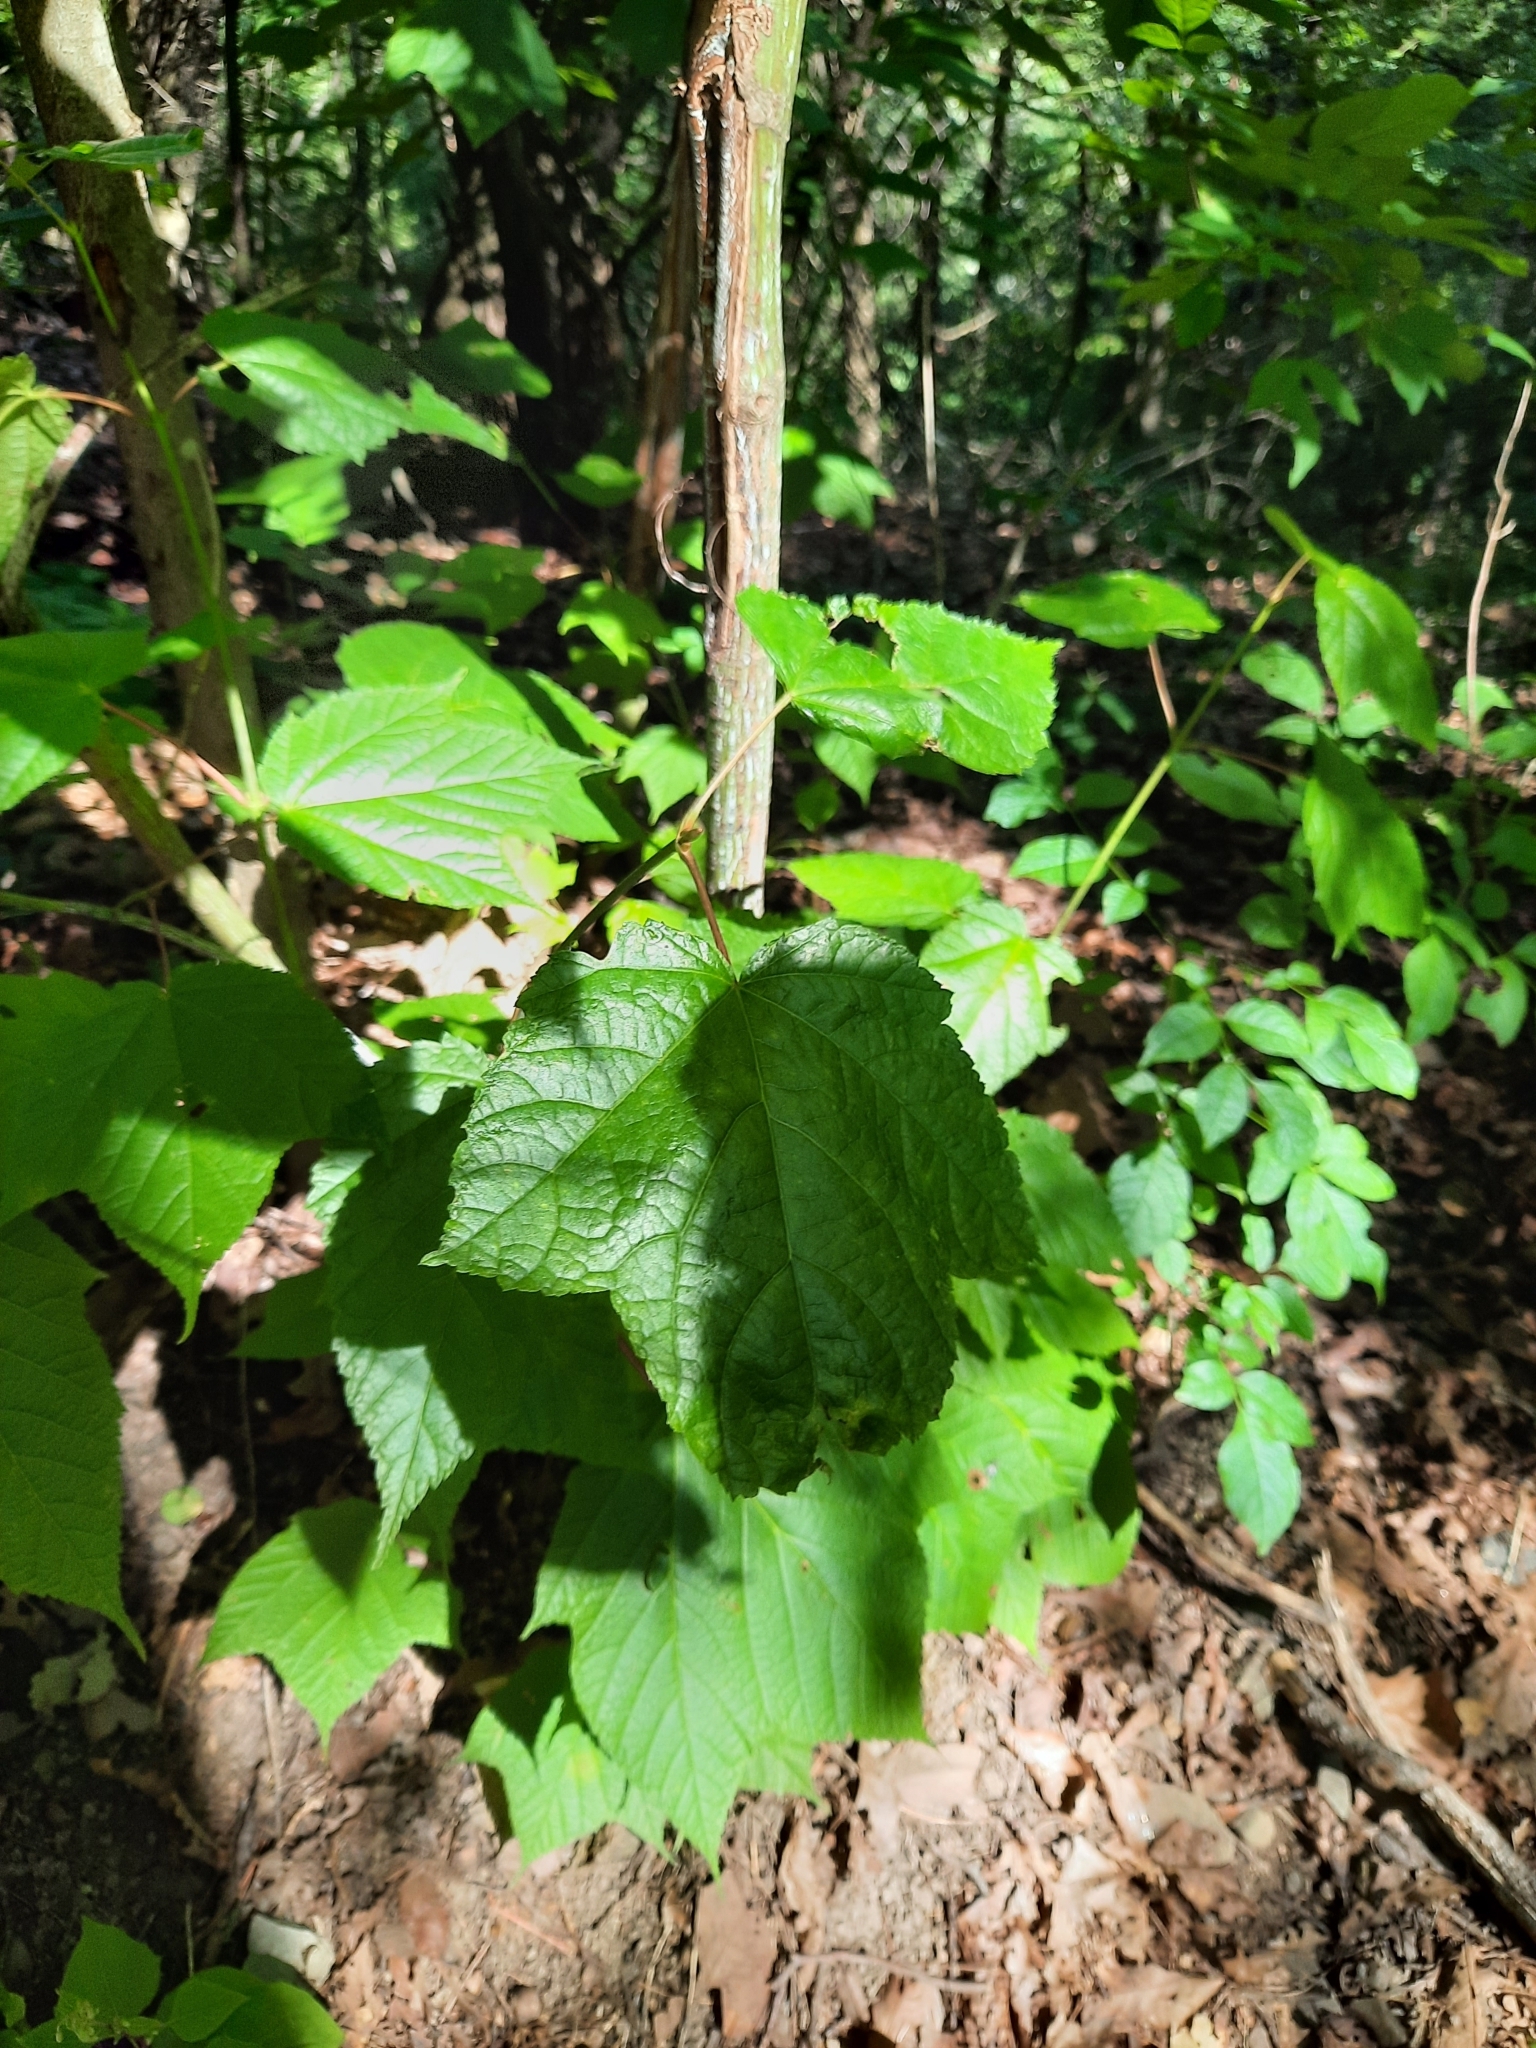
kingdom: Plantae
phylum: Tracheophyta
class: Magnoliopsida
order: Sapindales
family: Sapindaceae
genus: Acer
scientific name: Acer pensylvanicum
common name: Moosewood
